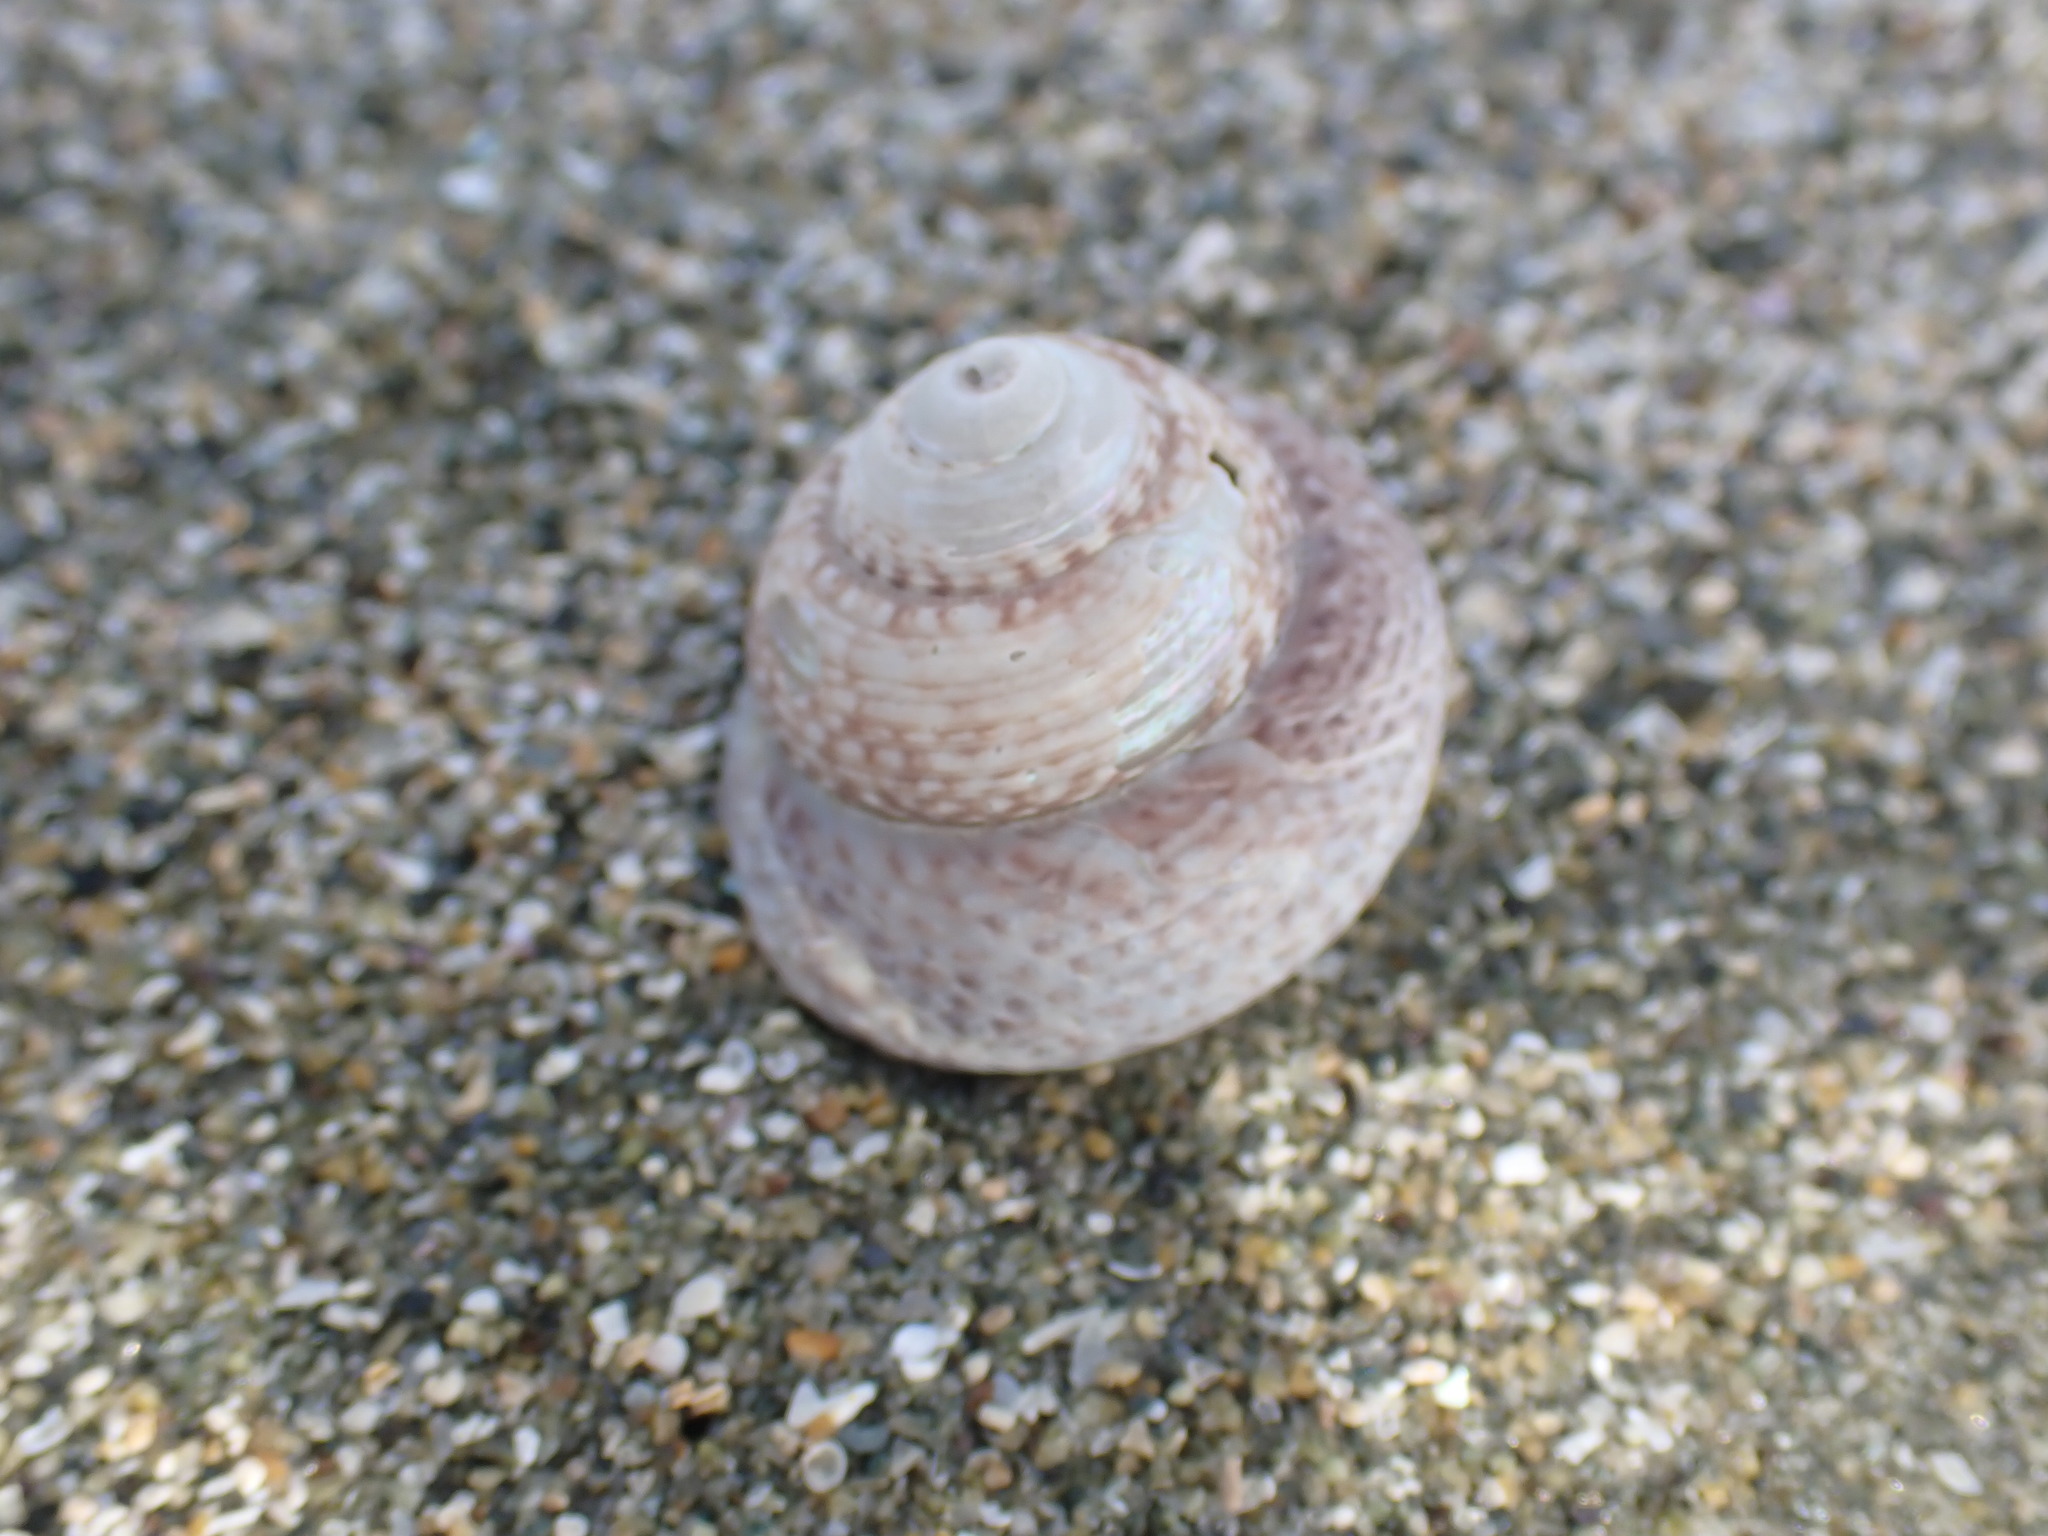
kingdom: Animalia
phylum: Mollusca
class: Gastropoda
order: Trochida
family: Trochidae
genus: Coelotrochus
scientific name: Coelotrochus tiaratus
